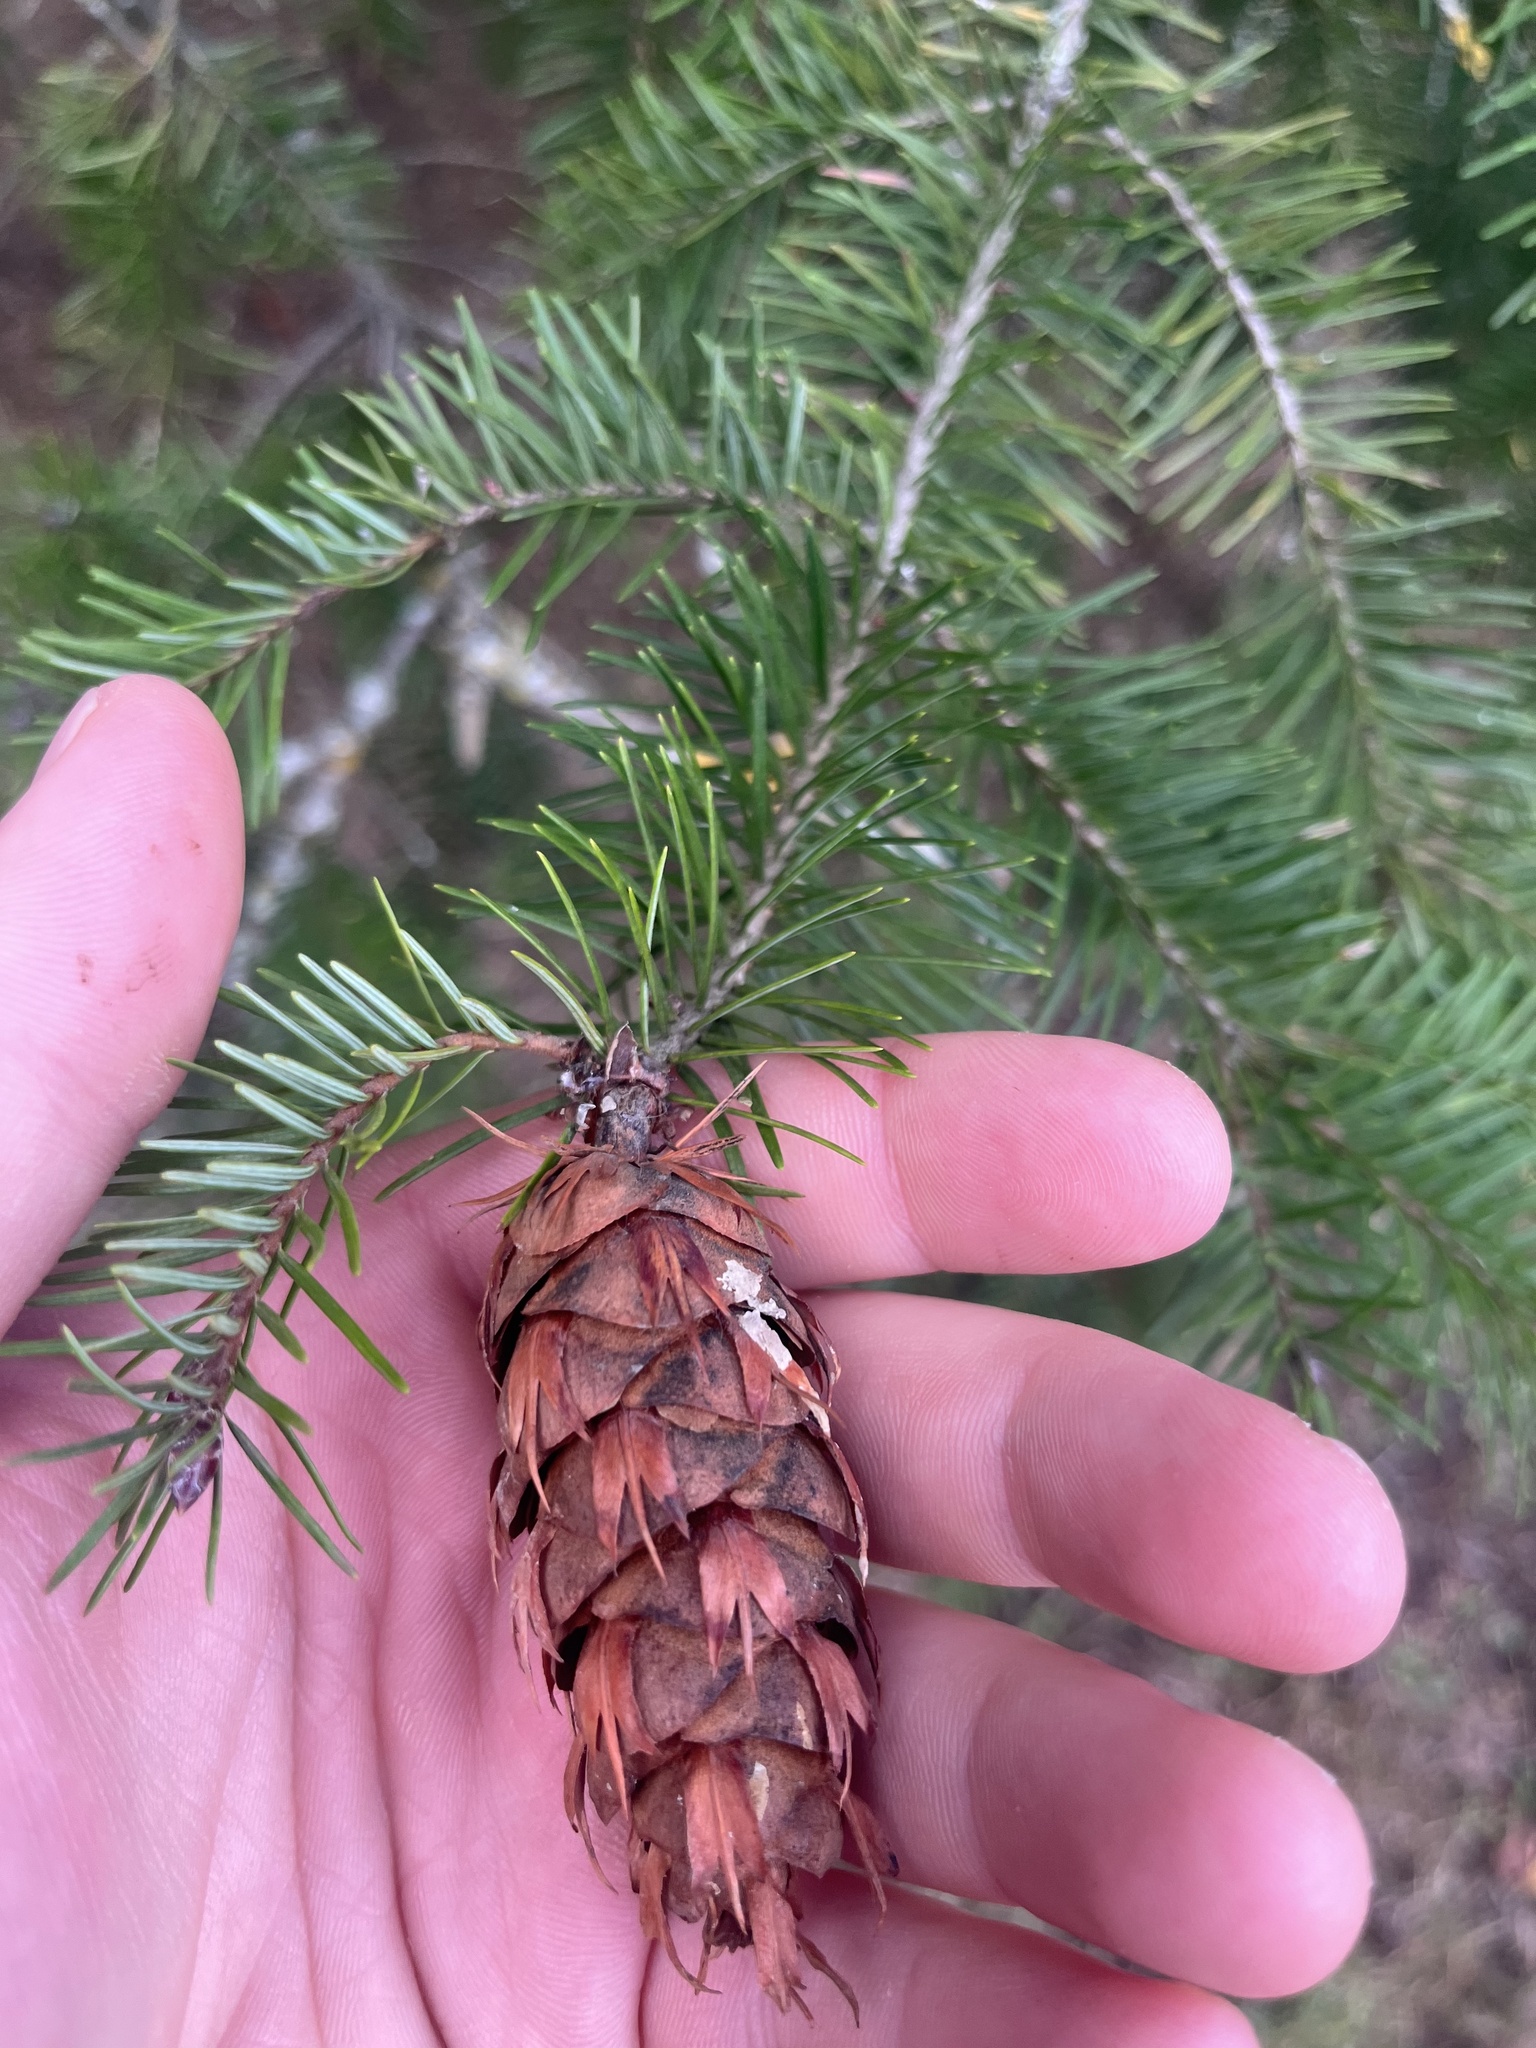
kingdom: Plantae
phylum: Tracheophyta
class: Pinopsida
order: Pinales
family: Pinaceae
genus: Pseudotsuga
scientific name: Pseudotsuga menziesii
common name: Douglas fir
